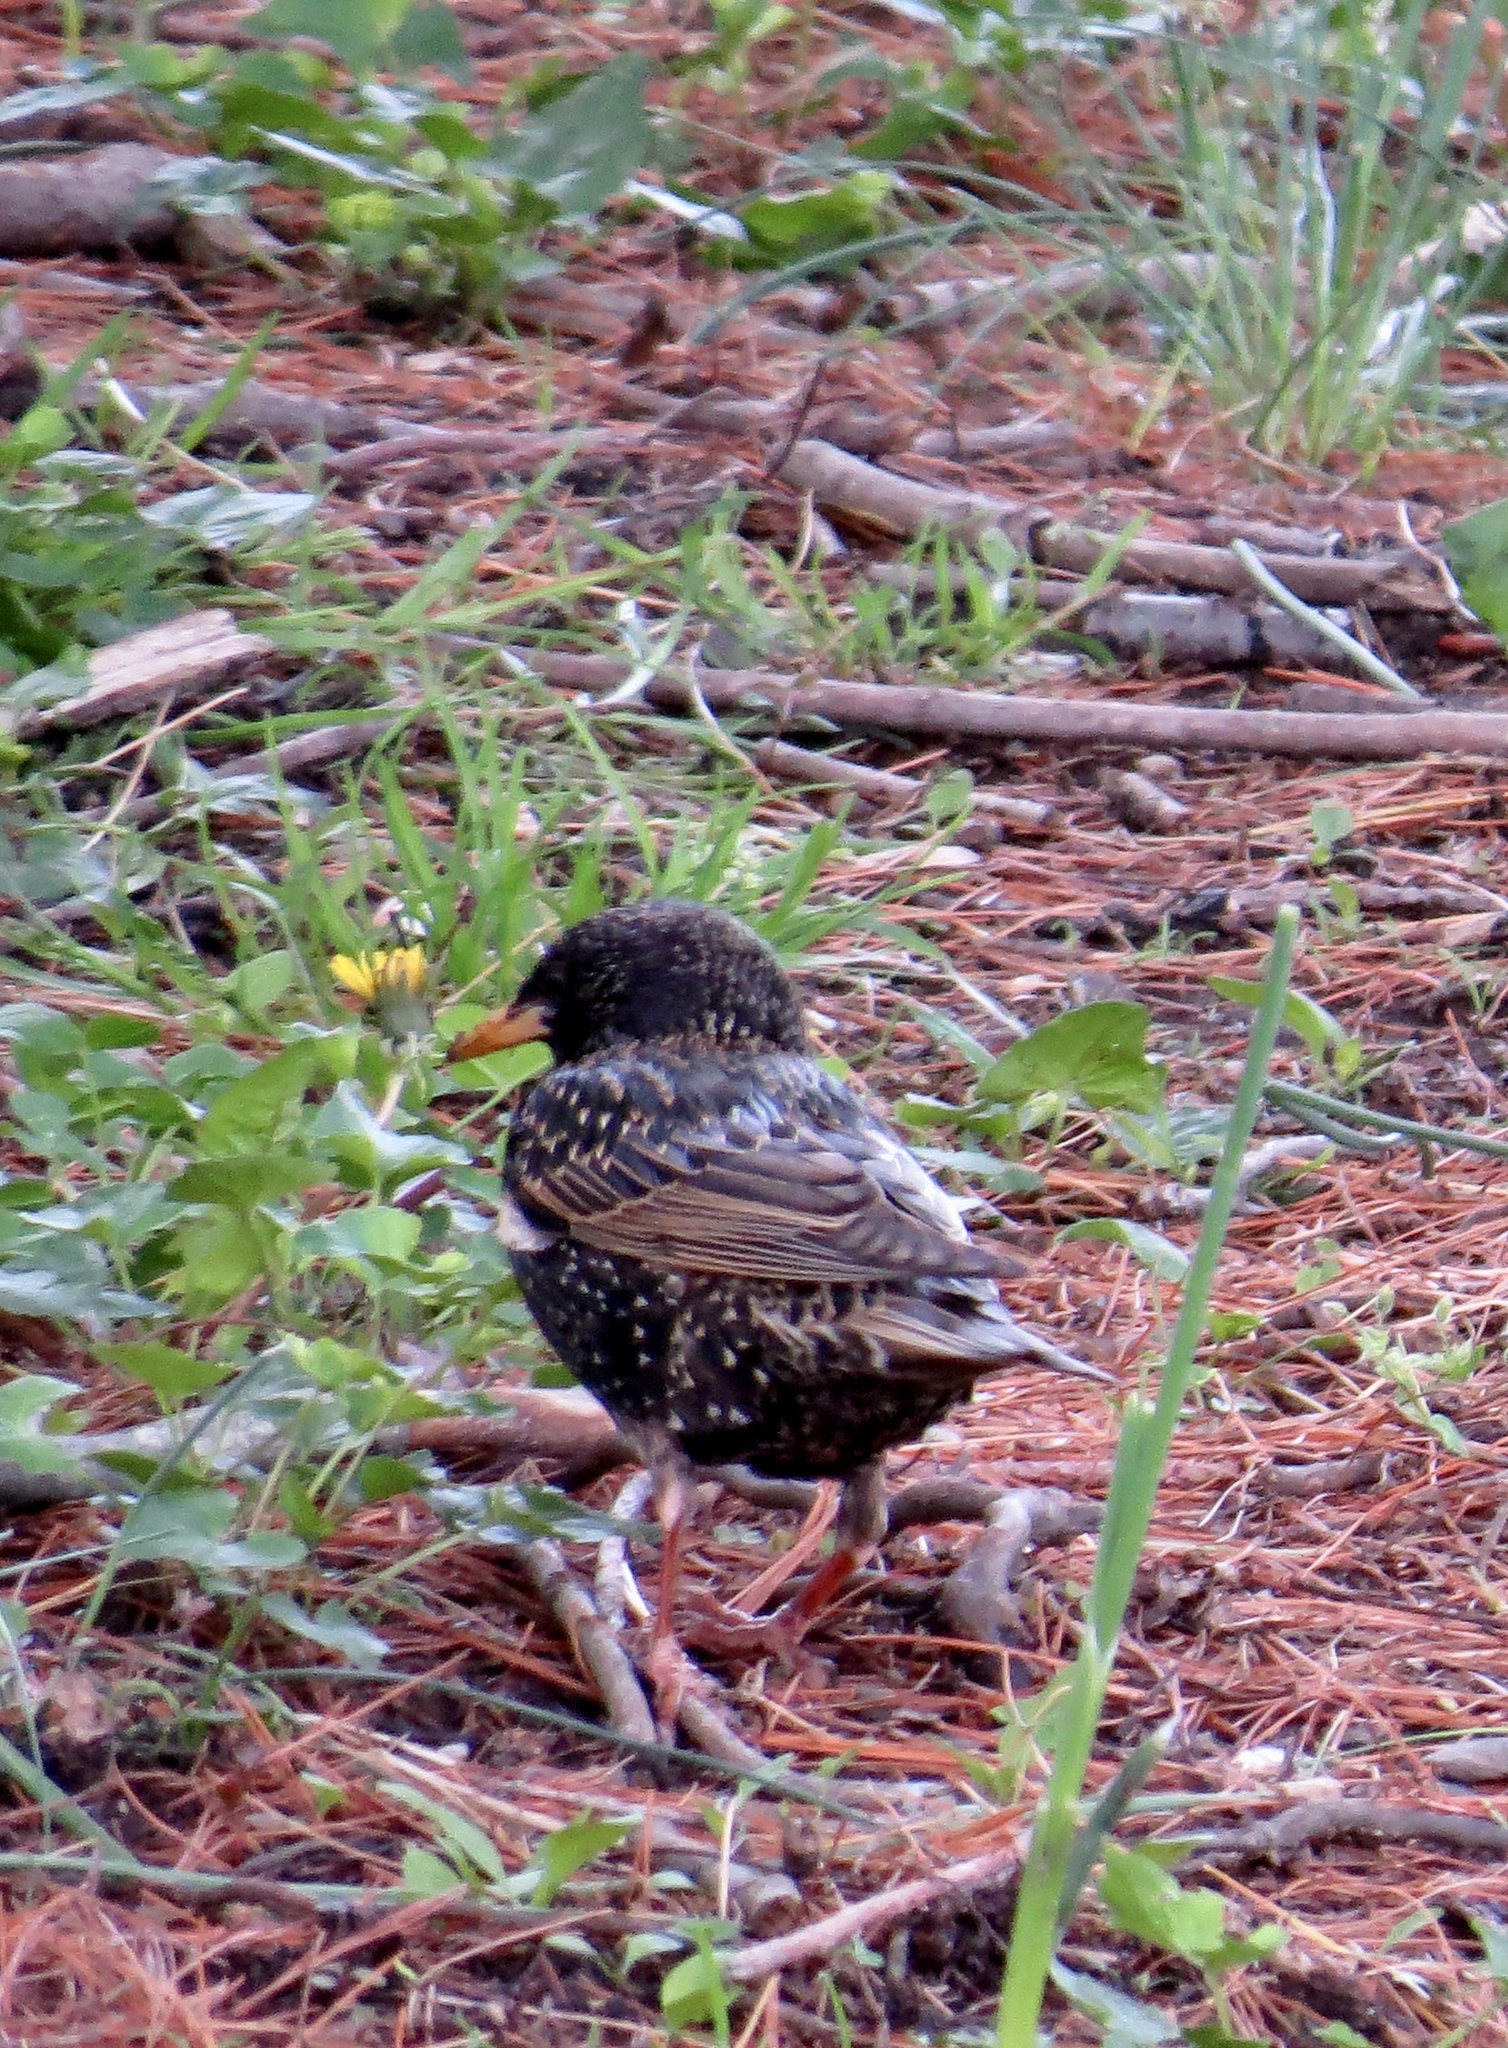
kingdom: Animalia
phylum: Chordata
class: Aves
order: Passeriformes
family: Sturnidae
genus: Sturnus
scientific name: Sturnus vulgaris
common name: Common starling
